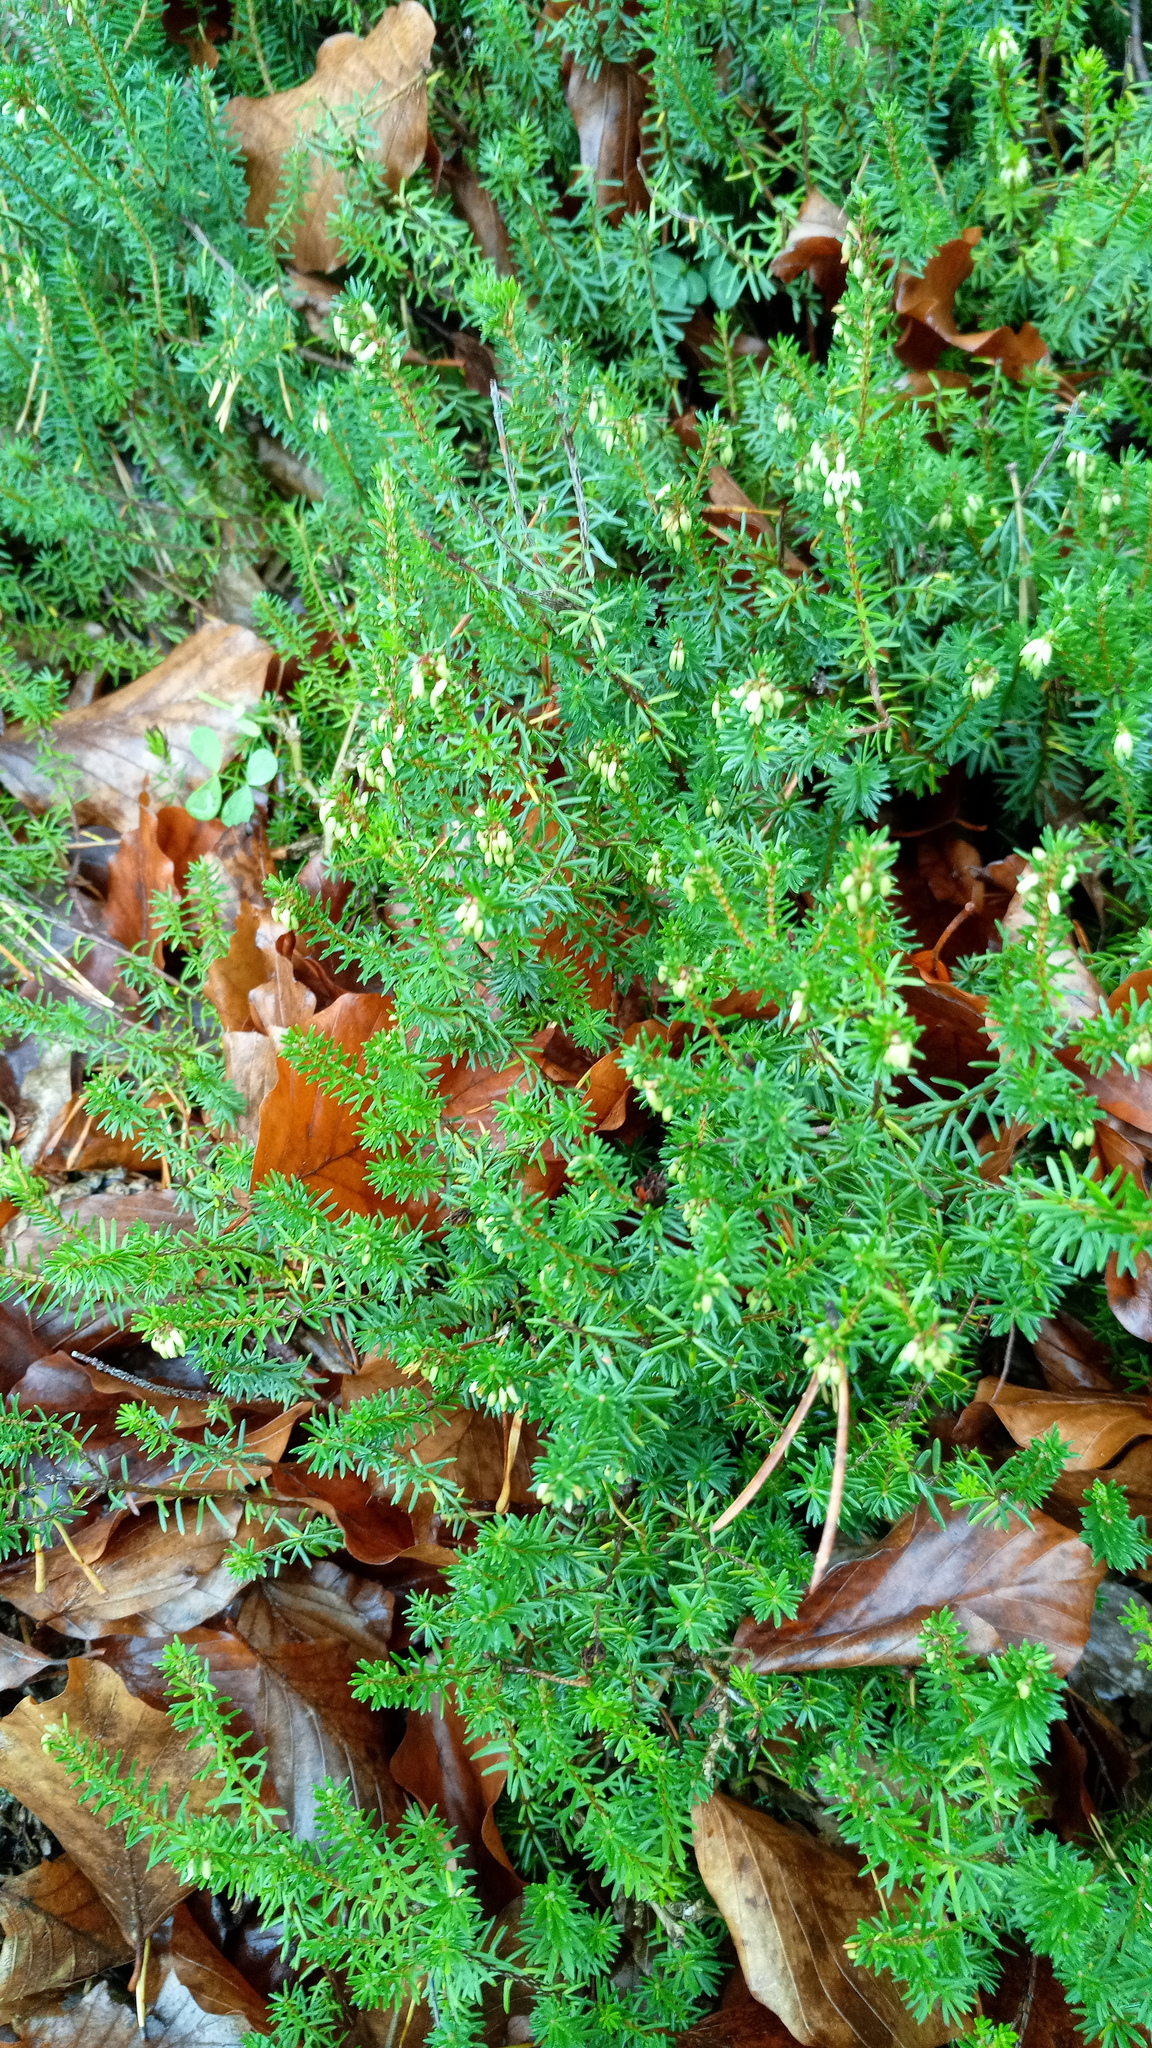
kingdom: Plantae
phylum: Tracheophyta
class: Magnoliopsida
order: Ericales
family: Ericaceae
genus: Erica
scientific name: Erica carnea
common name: Winter heath
